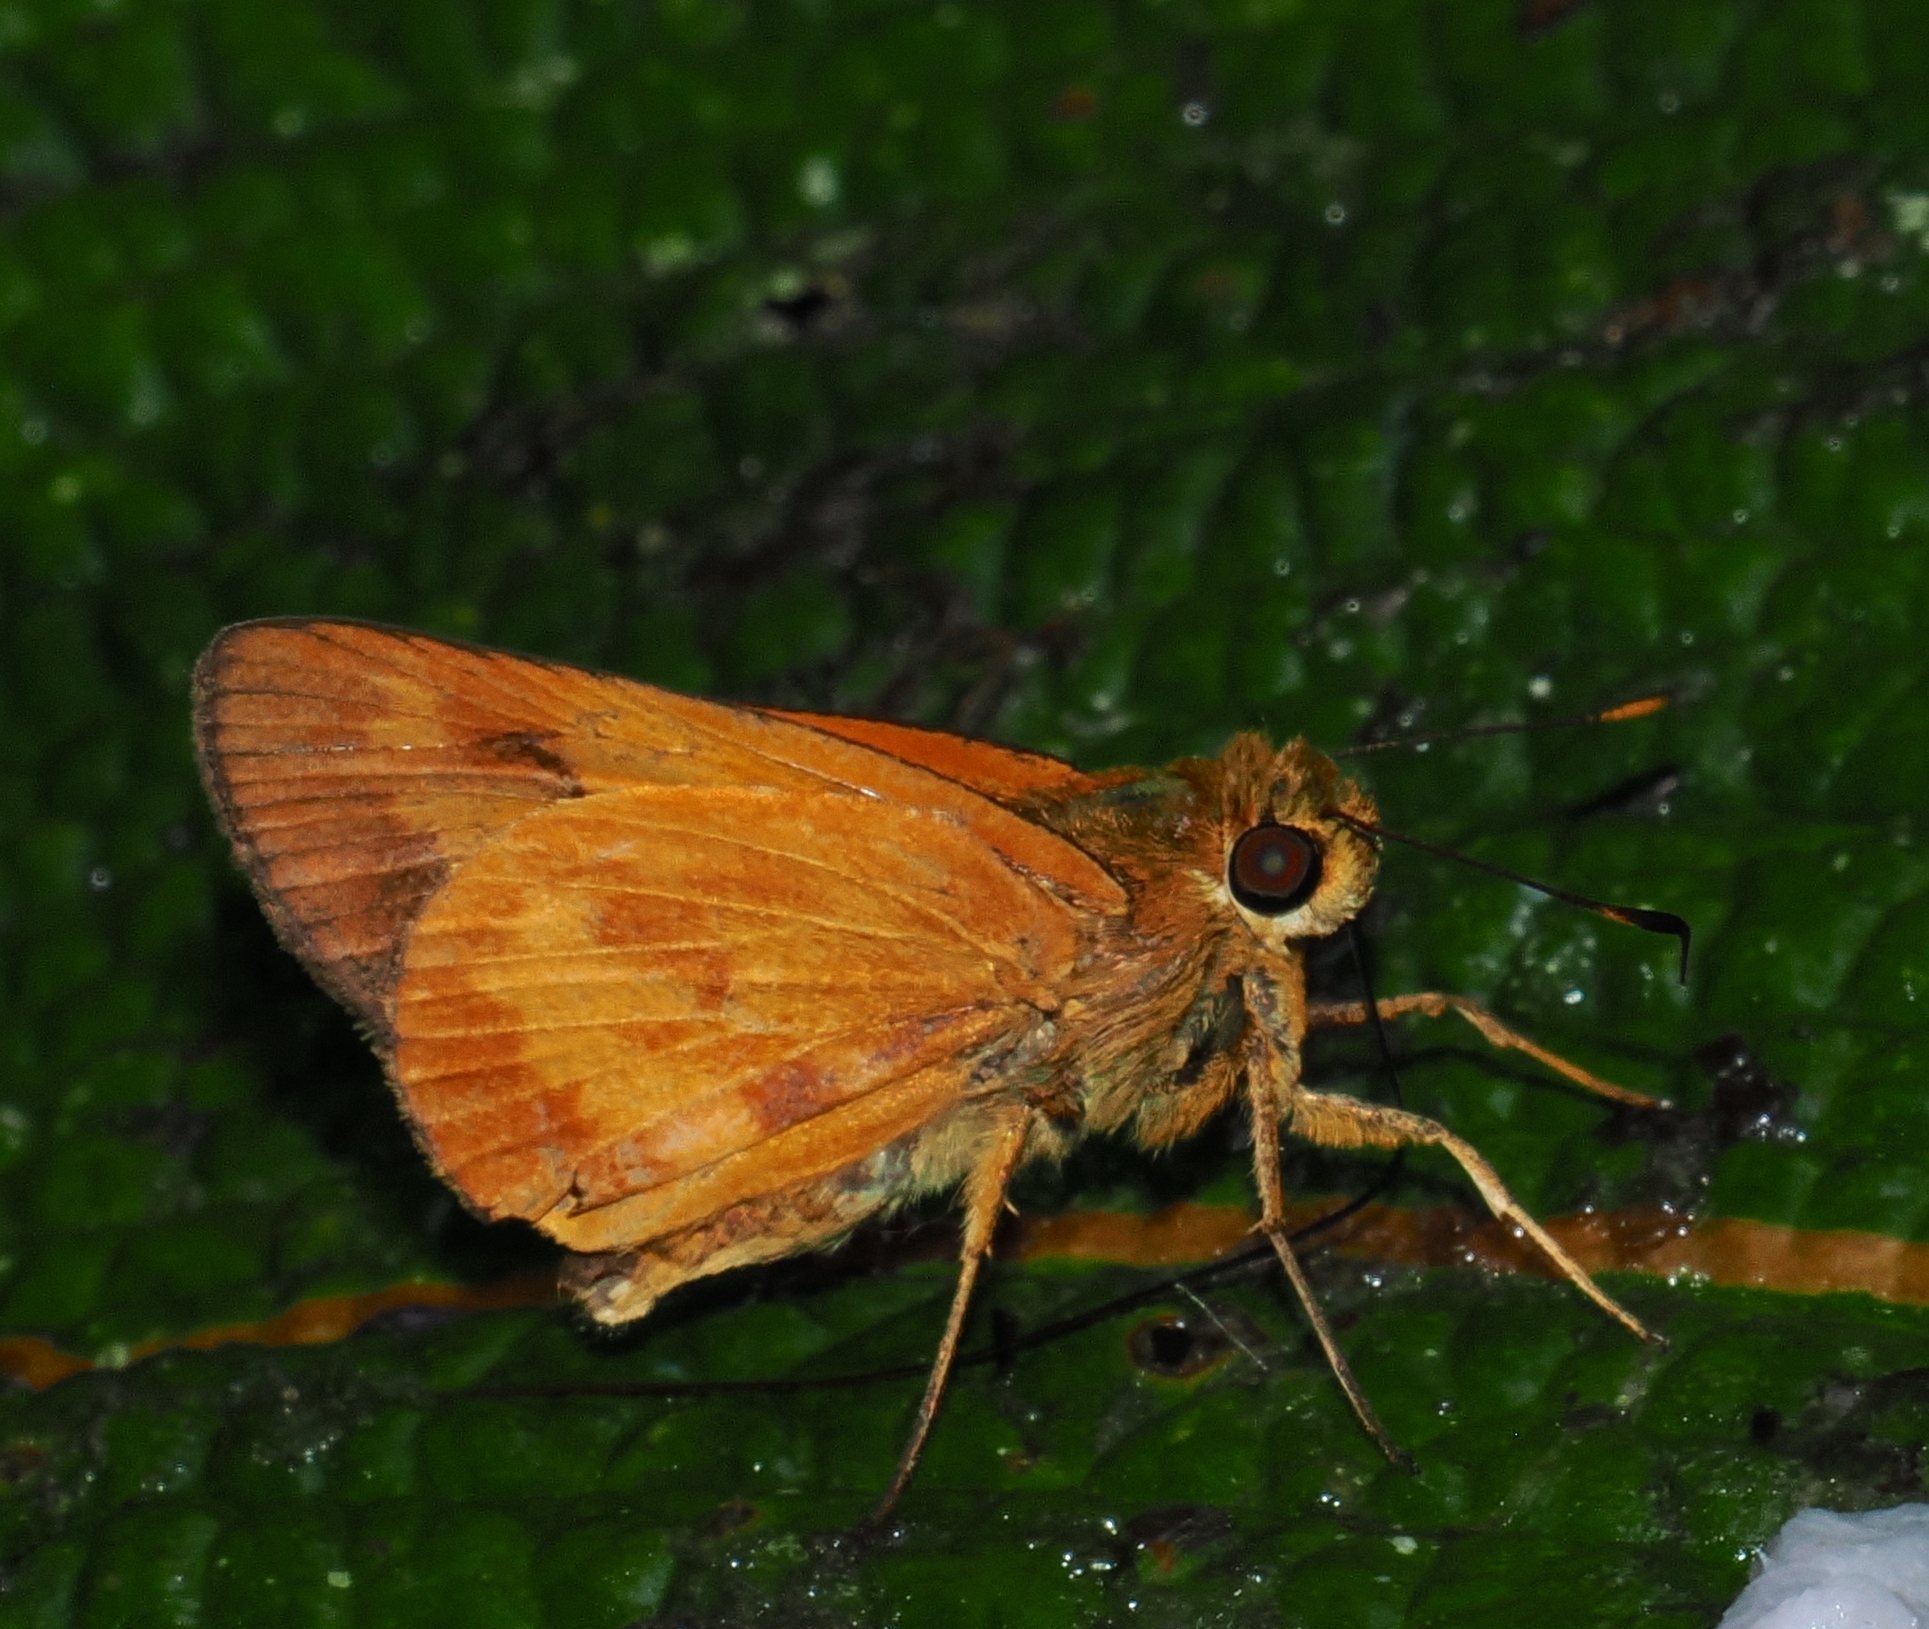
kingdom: Animalia
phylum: Arthropoda
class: Insecta
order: Lepidoptera
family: Hesperiidae
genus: Racta
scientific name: Racta apella
